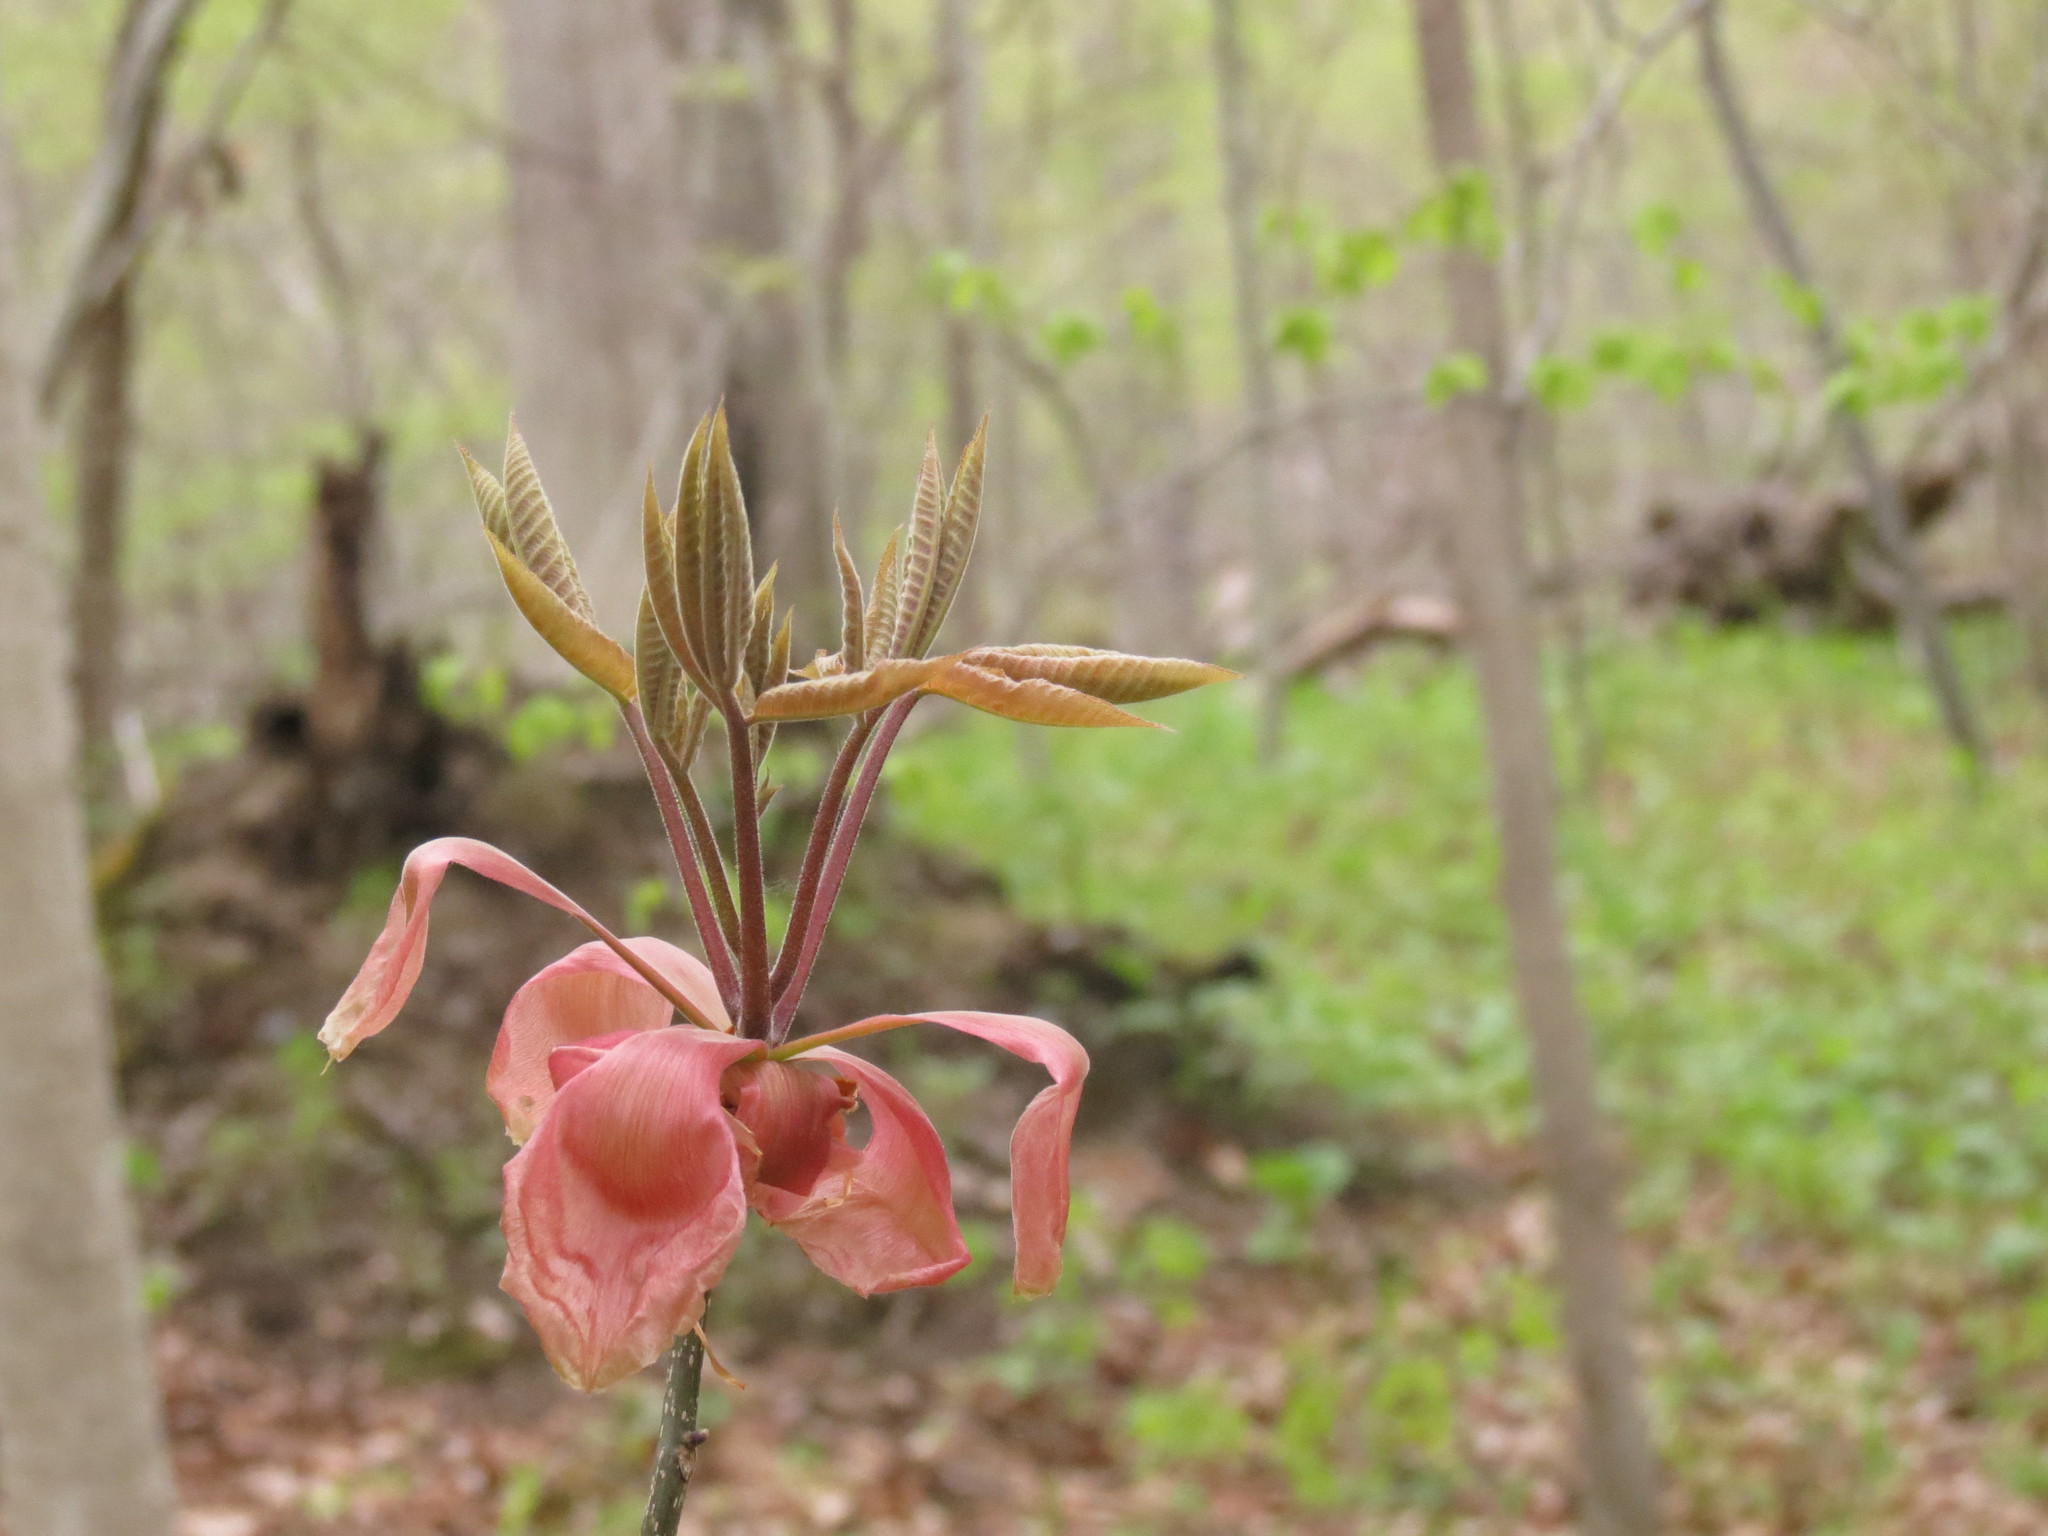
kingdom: Plantae
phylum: Tracheophyta
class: Magnoliopsida
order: Fagales
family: Juglandaceae
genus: Carya
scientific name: Carya ovata
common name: Shagbark hickory
